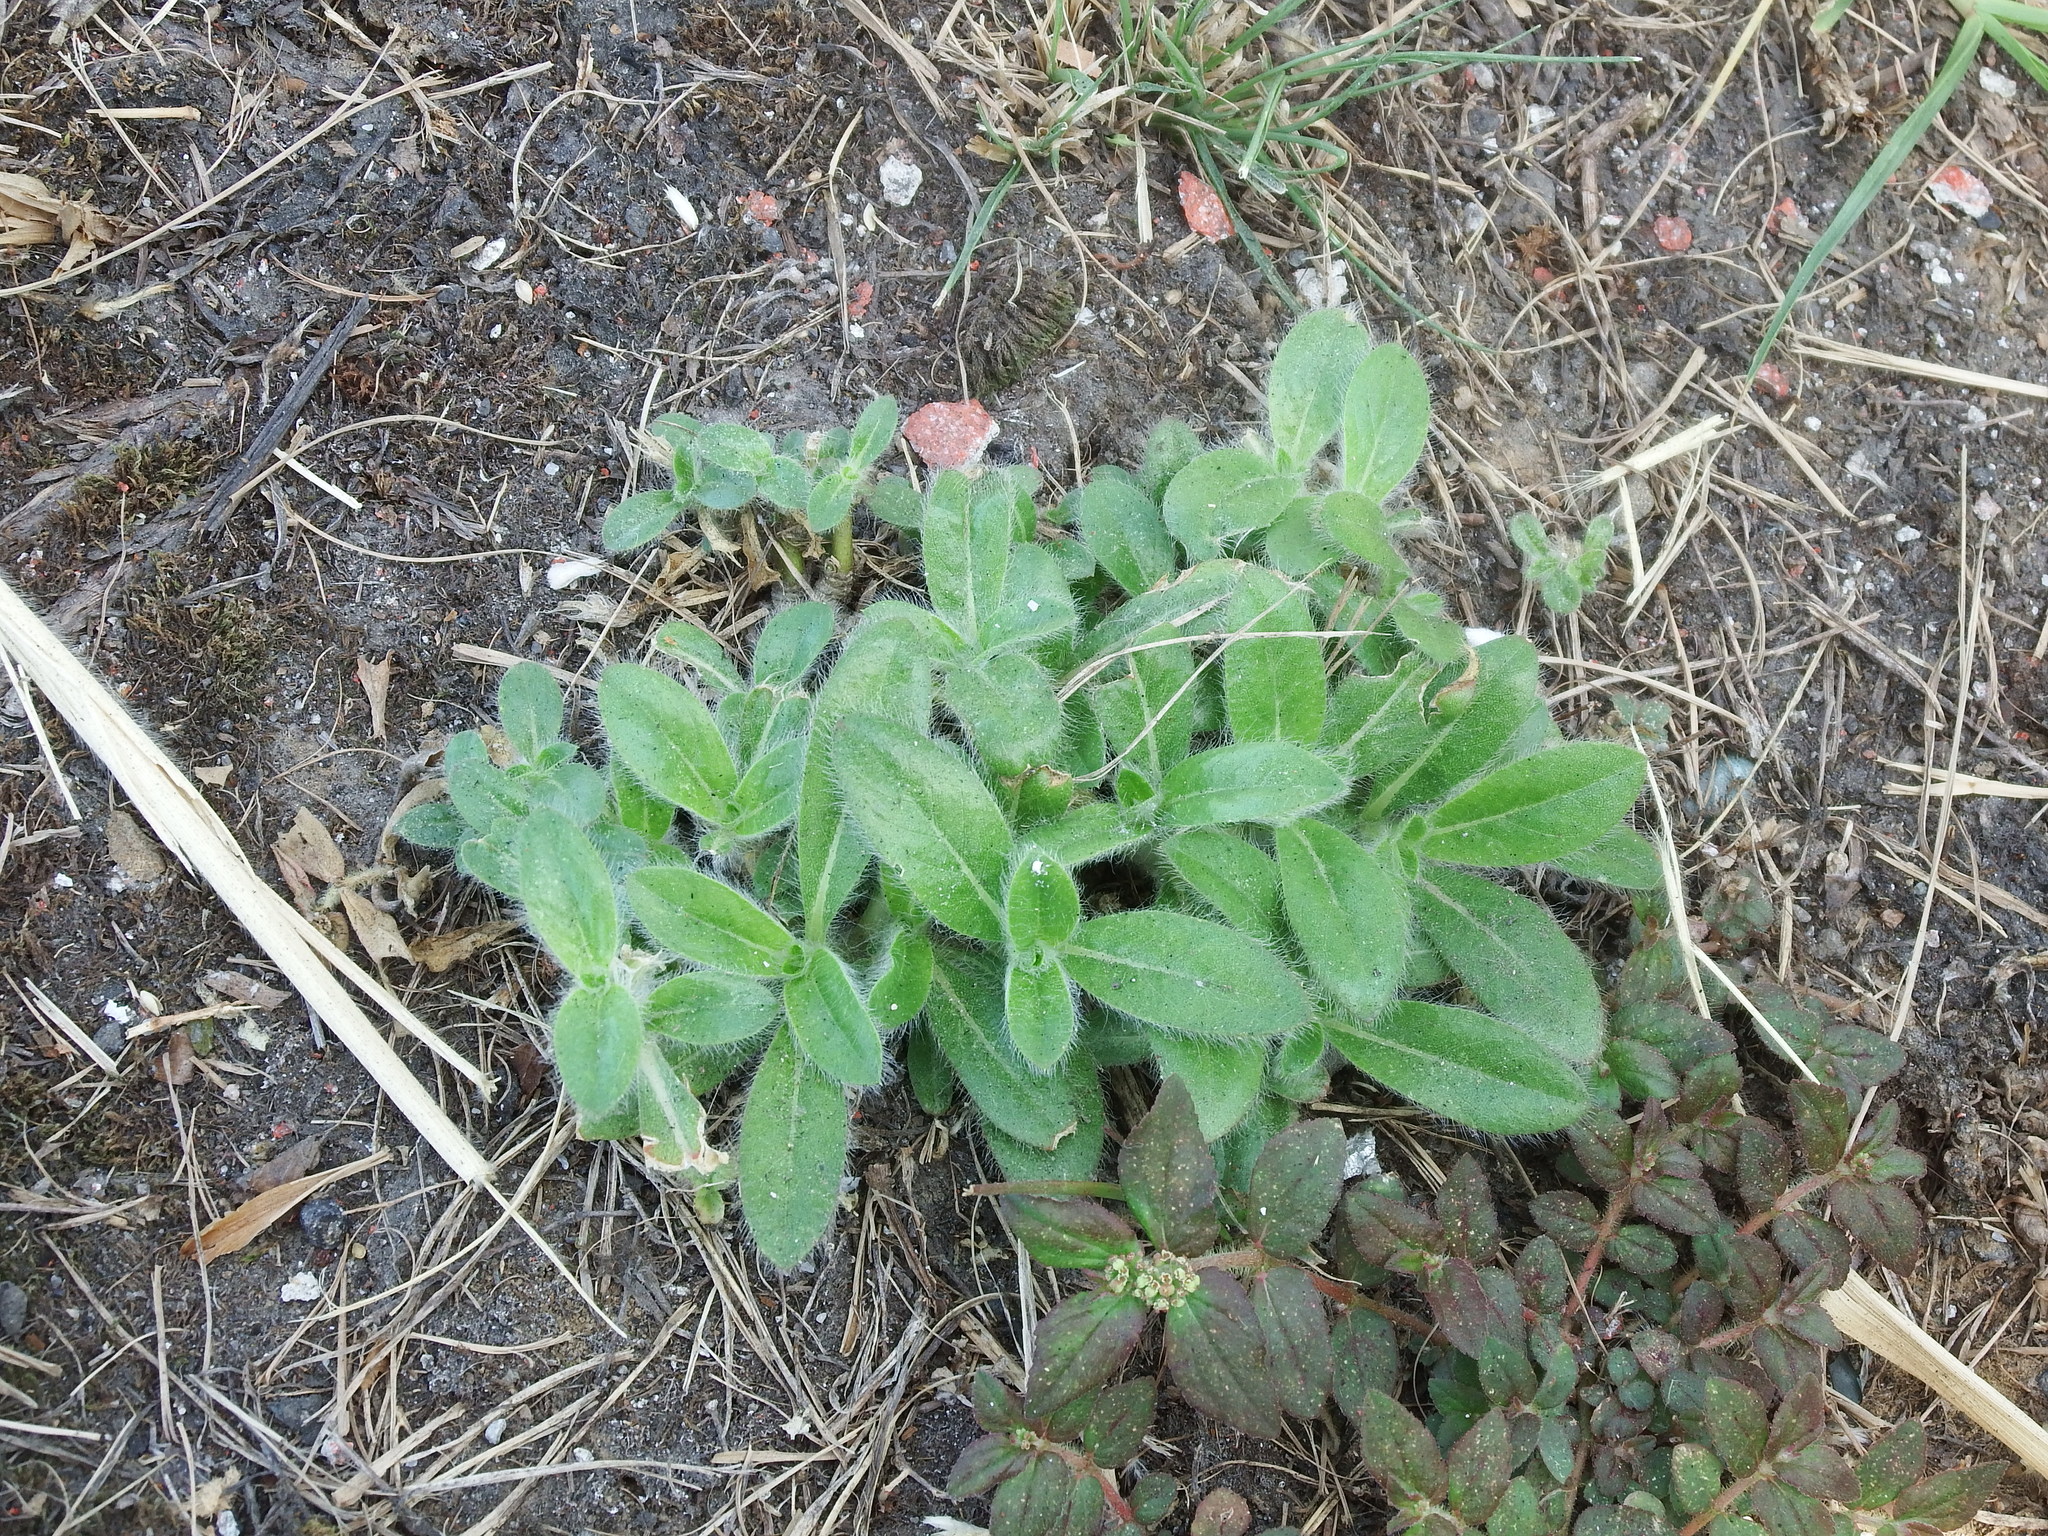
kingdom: Plantae
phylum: Tracheophyta
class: Magnoliopsida
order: Caryophyllales
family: Amaranthaceae
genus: Gomphrena
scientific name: Gomphrena celosioides
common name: Gomphrena-weed
